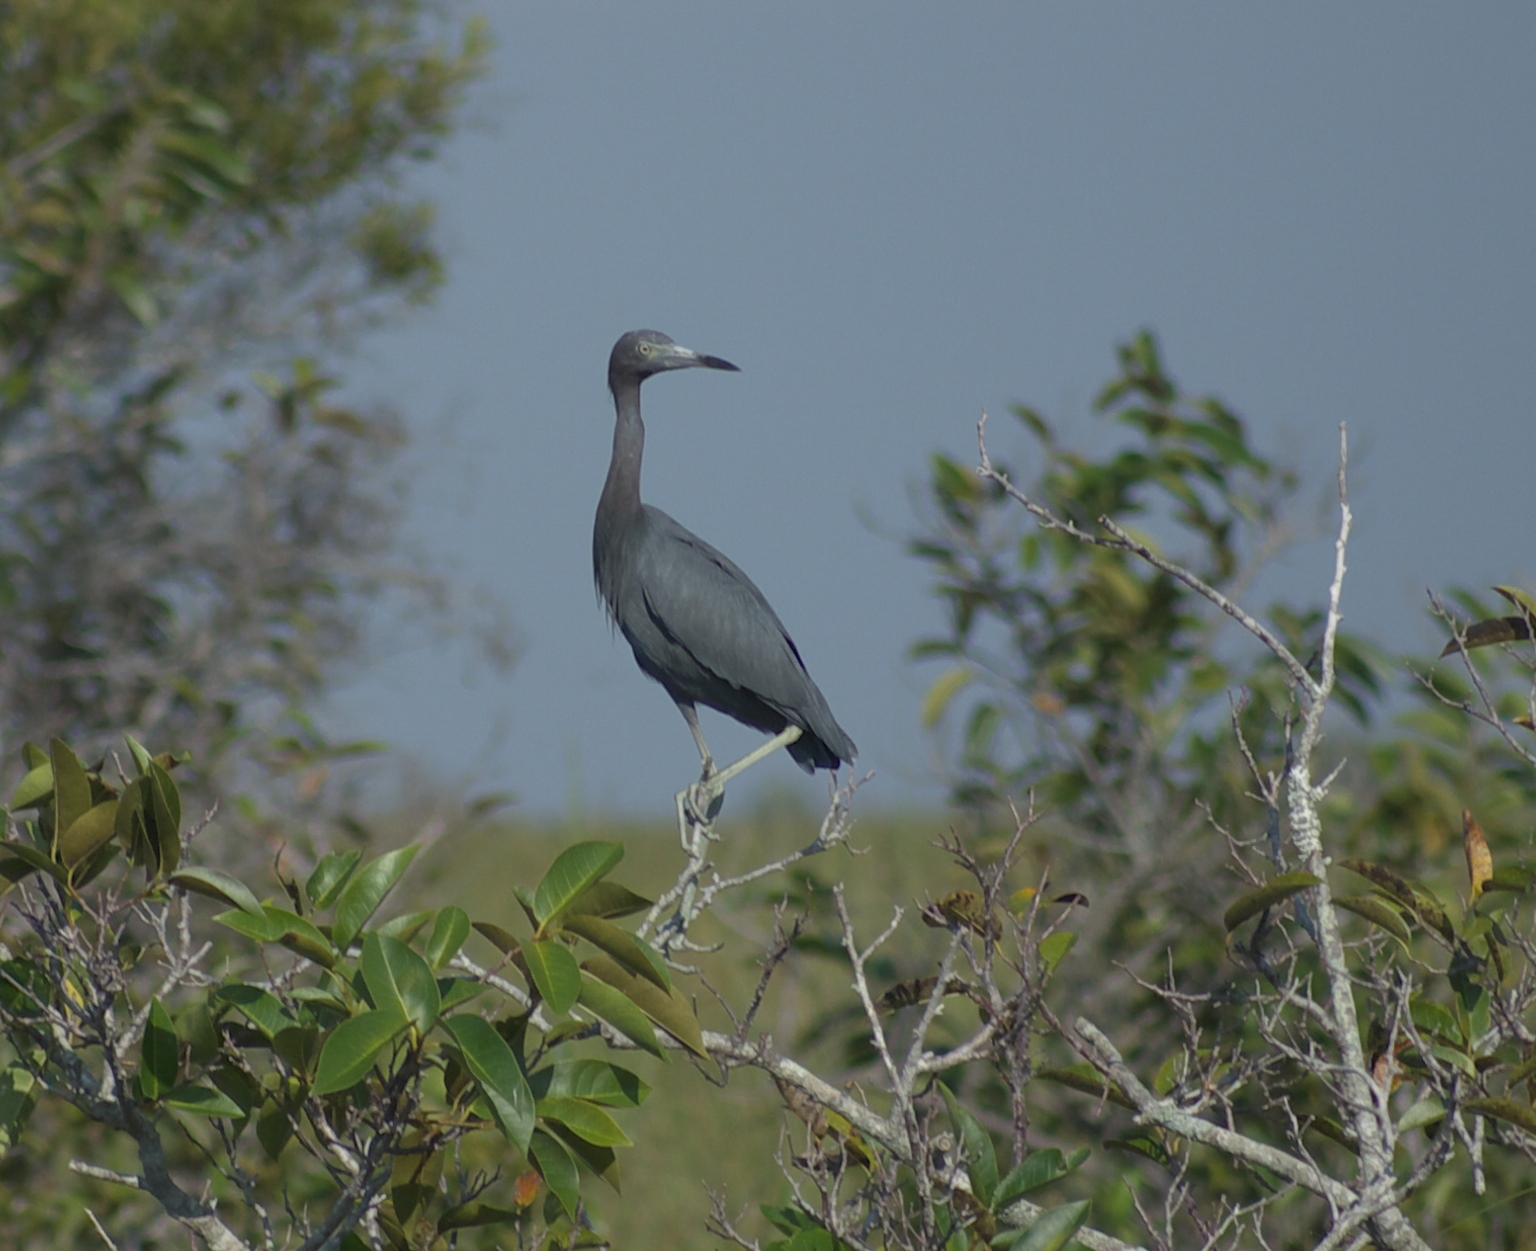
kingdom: Animalia
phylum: Chordata
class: Aves
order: Pelecaniformes
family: Ardeidae
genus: Egretta
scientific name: Egretta caerulea
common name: Little blue heron
